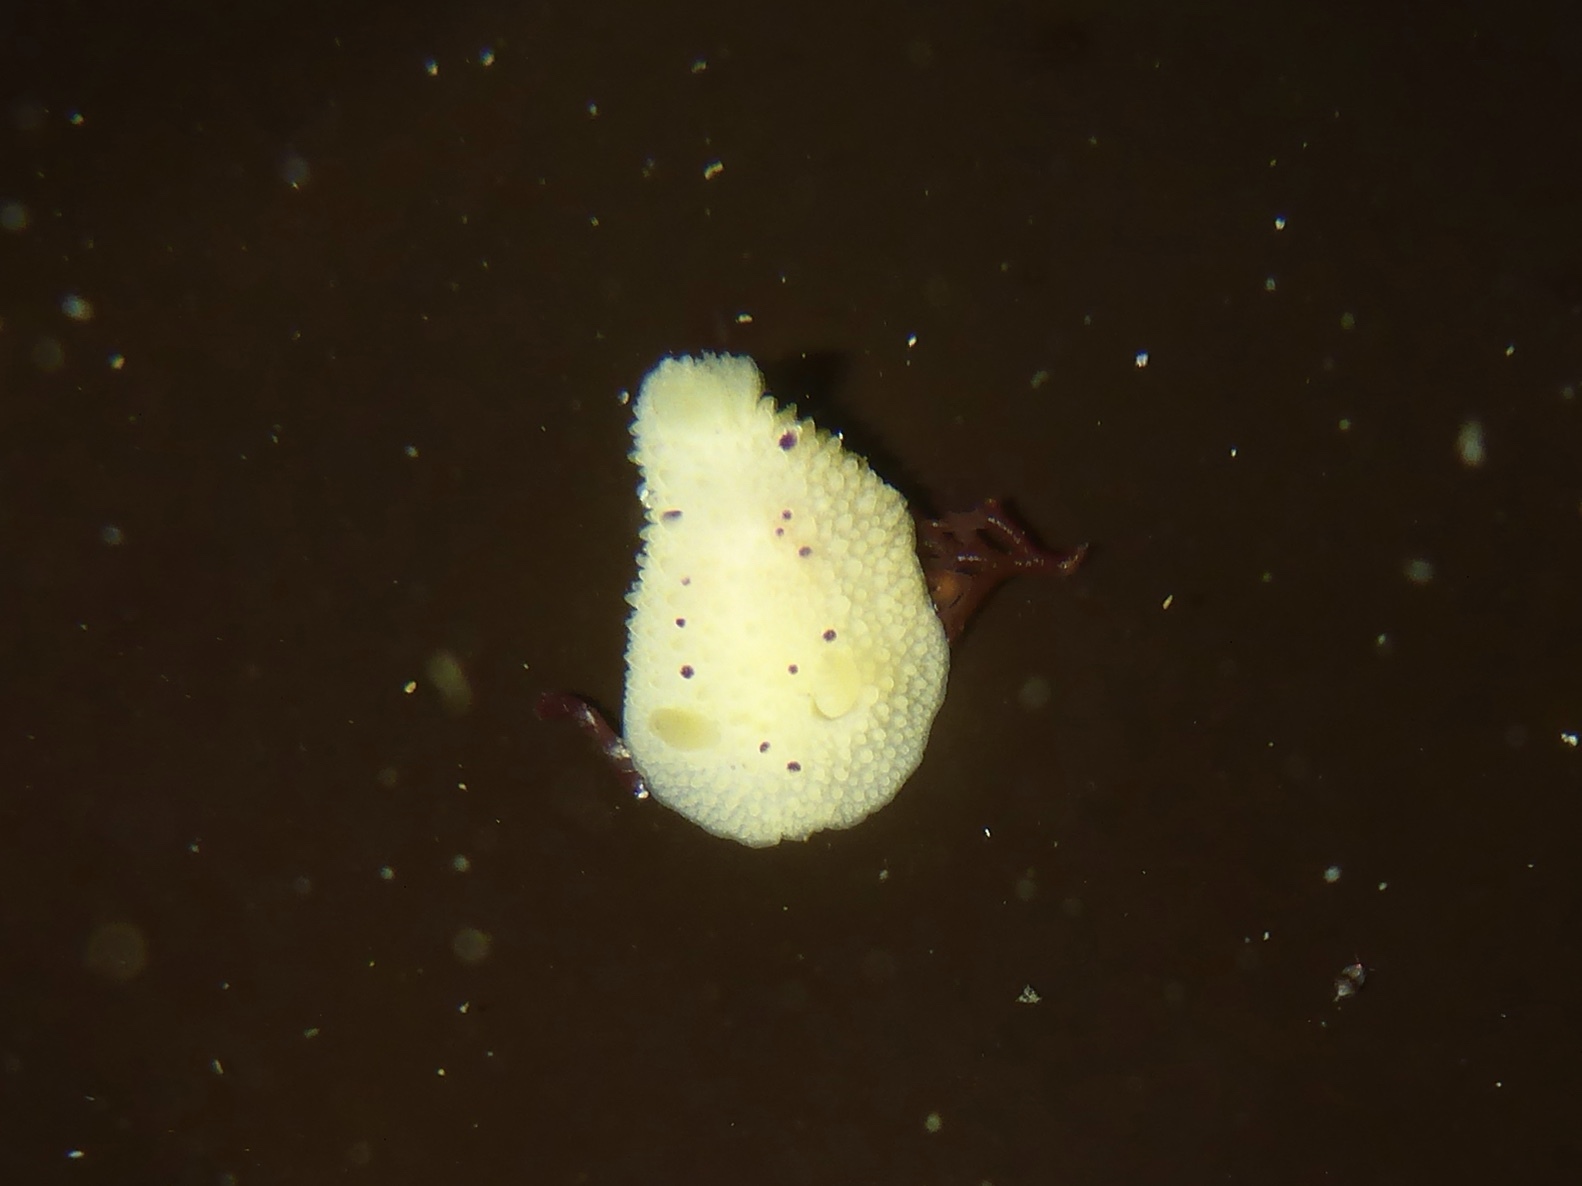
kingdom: Animalia
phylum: Mollusca
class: Gastropoda
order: Nudibranchia
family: Dorididae
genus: Doris
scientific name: Doris montereyensis
